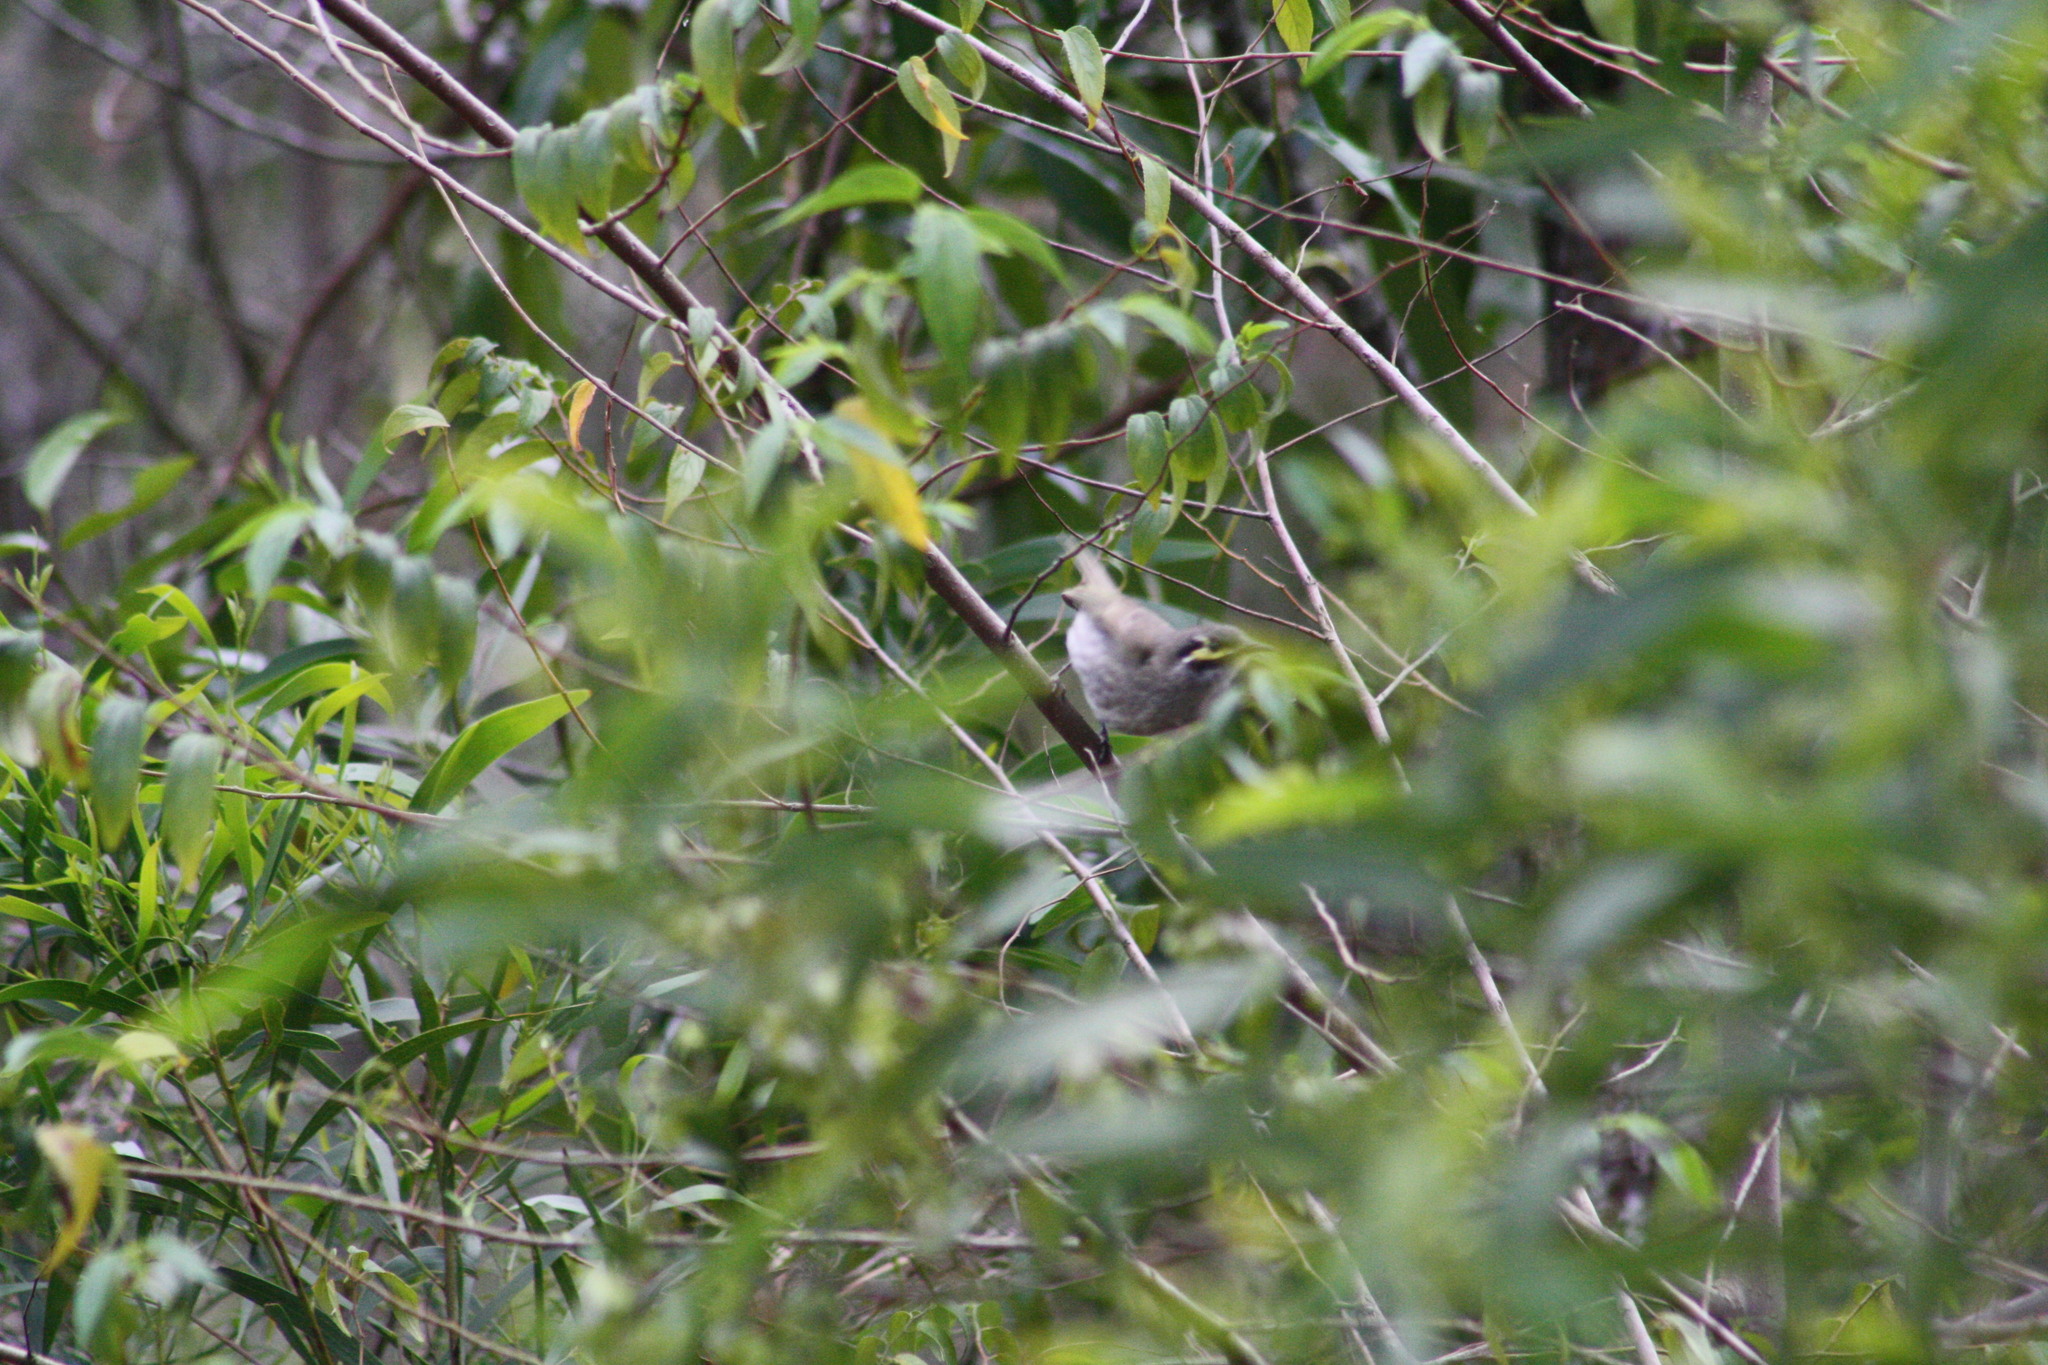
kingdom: Animalia
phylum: Chordata
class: Aves
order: Passeriformes
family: Meliphagidae
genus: Caligavis
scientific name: Caligavis chrysops
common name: Yellow-faced honeyeater
